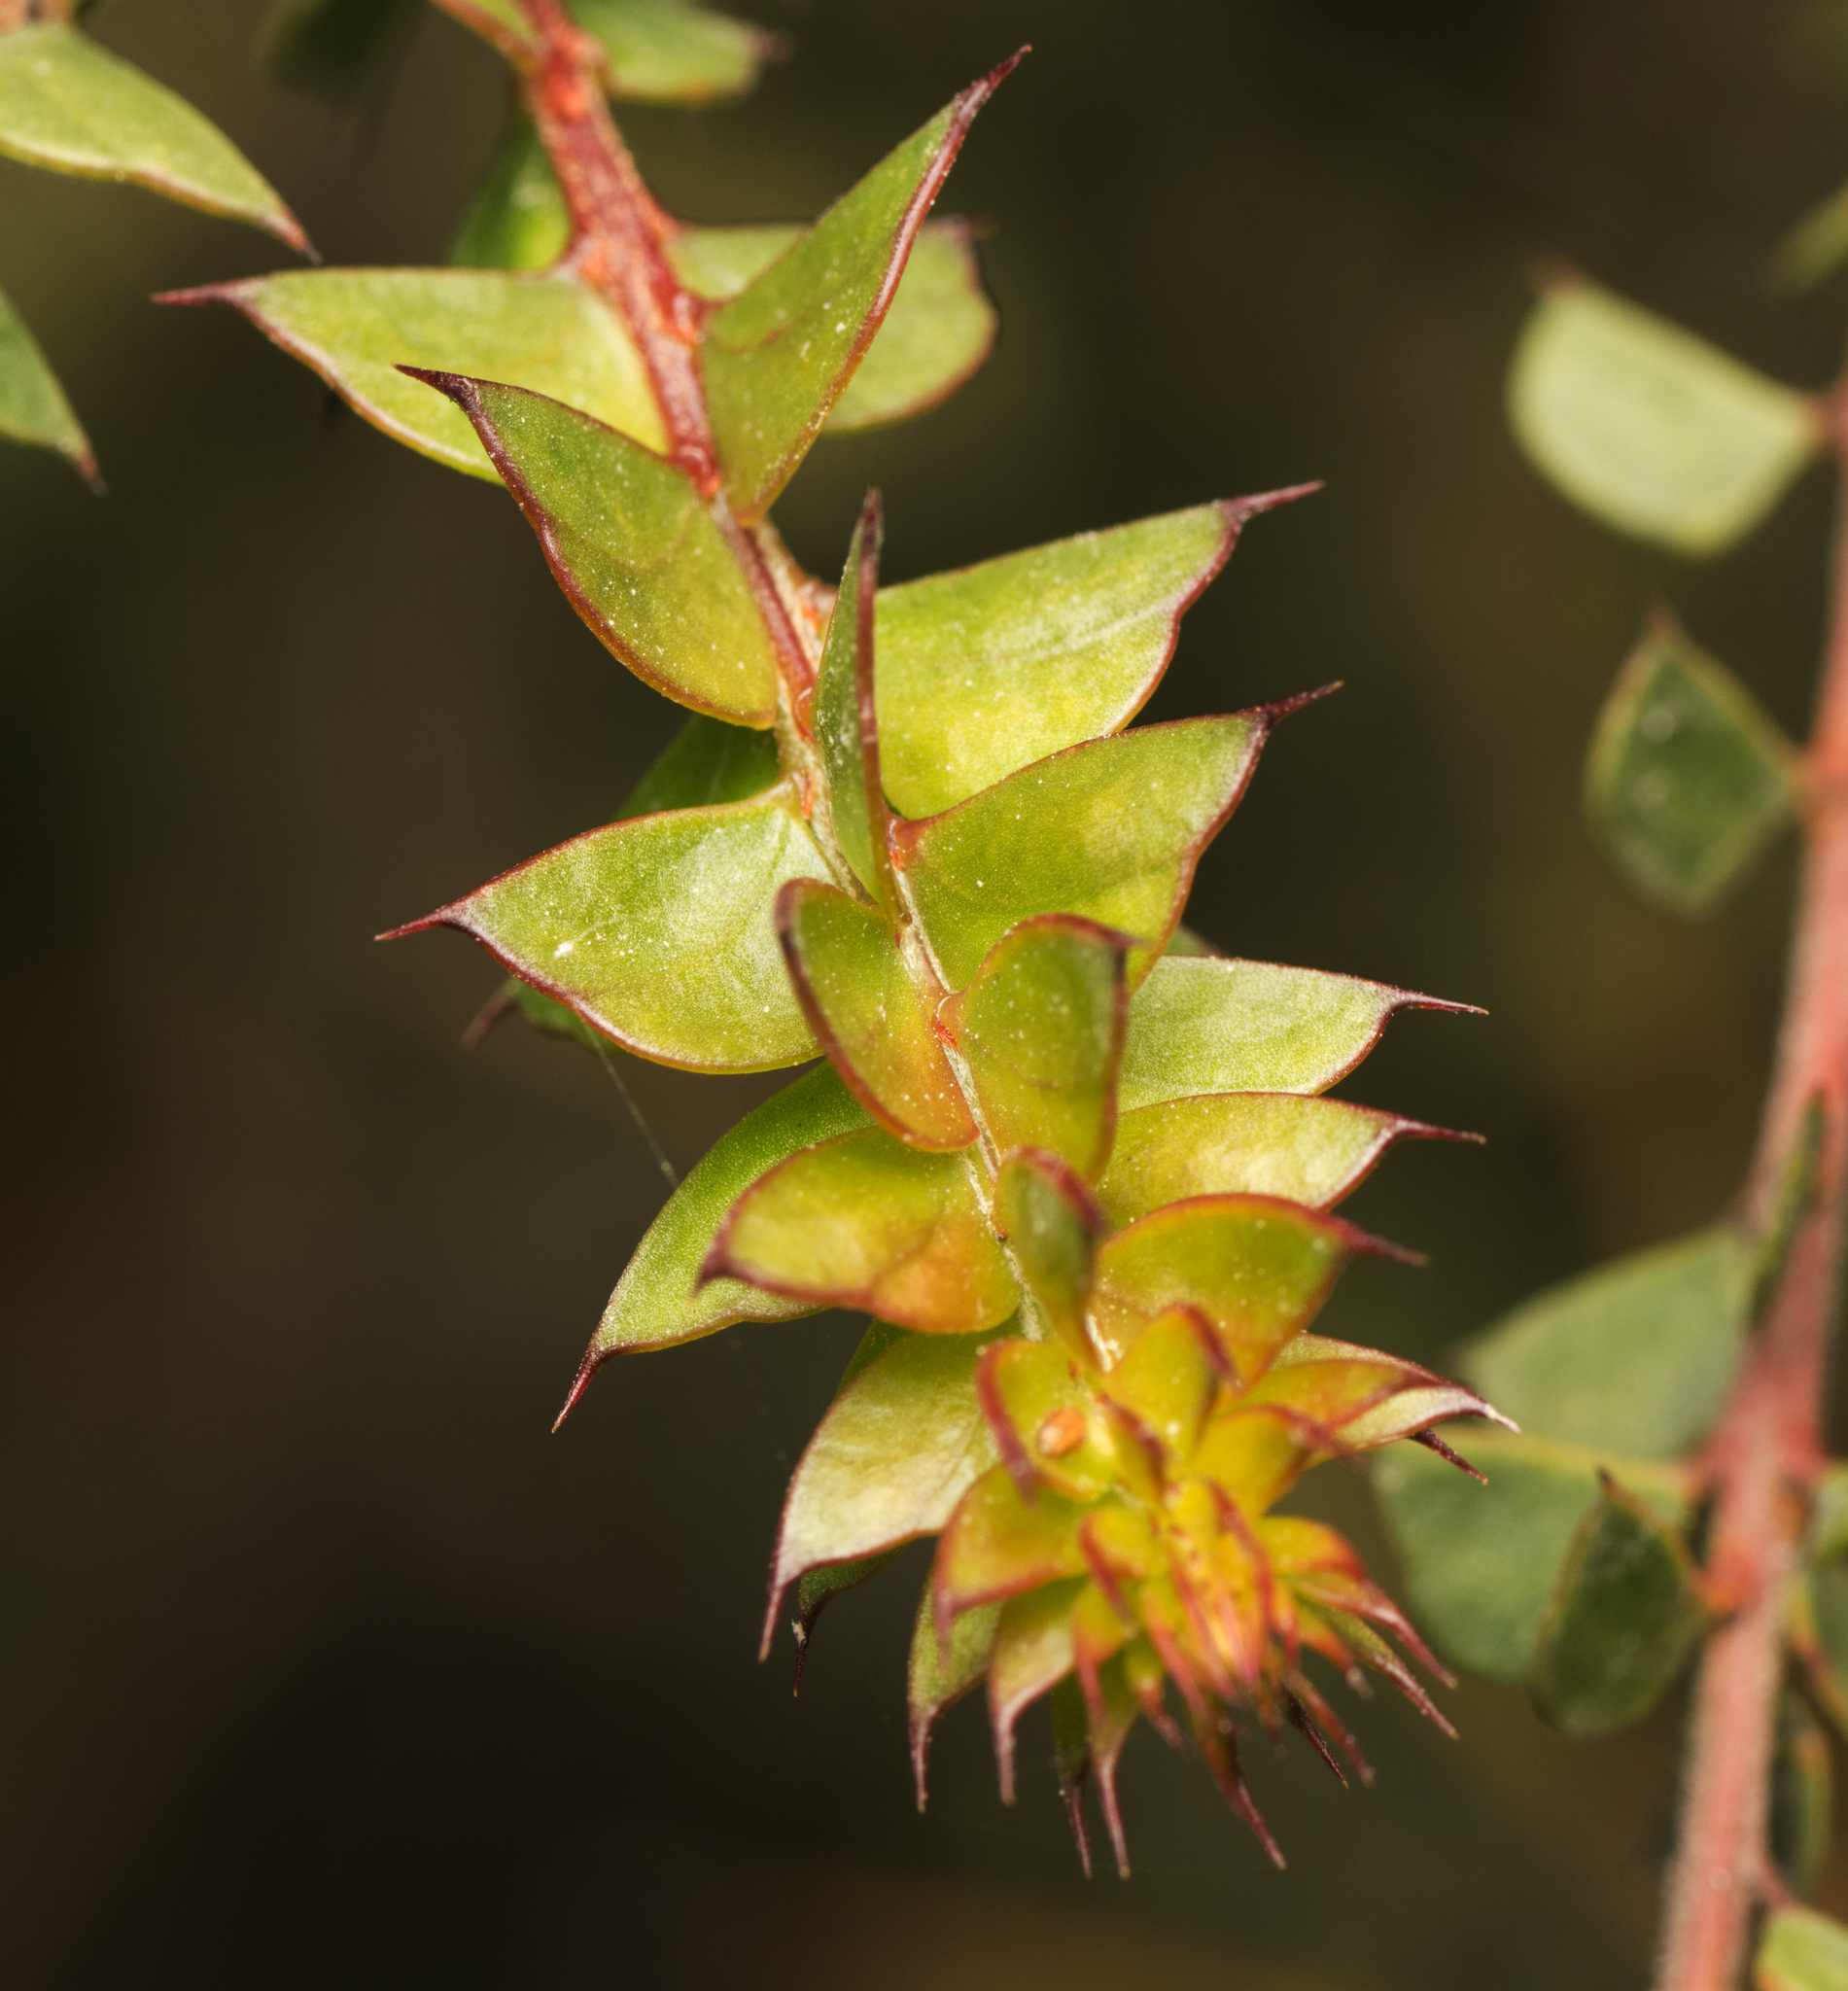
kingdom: Plantae
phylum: Tracheophyta
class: Magnoliopsida
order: Fabales
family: Fabaceae
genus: Acacia
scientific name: Acacia hubbardiana
